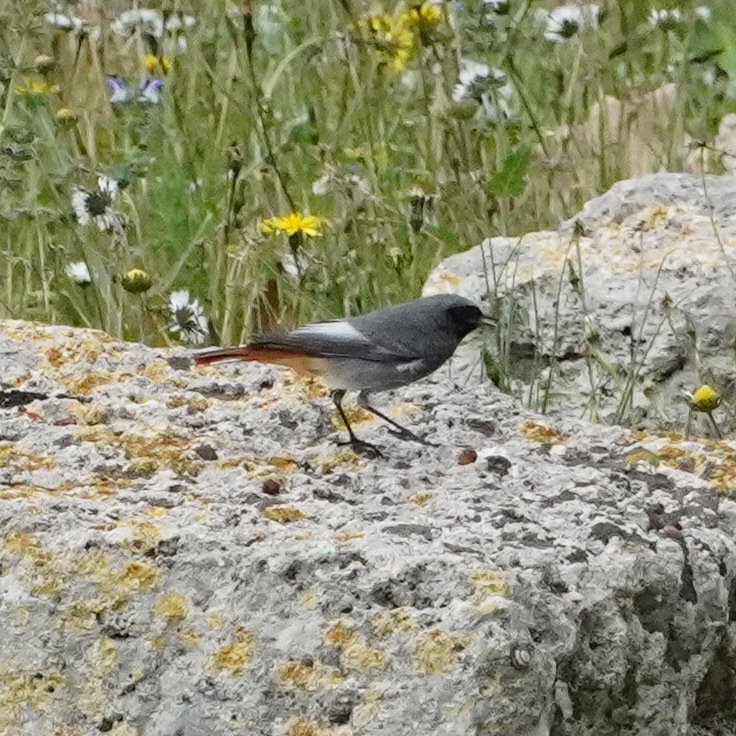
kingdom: Animalia
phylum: Chordata
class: Aves
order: Passeriformes
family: Muscicapidae
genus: Phoenicurus
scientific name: Phoenicurus ochruros
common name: Black redstart
